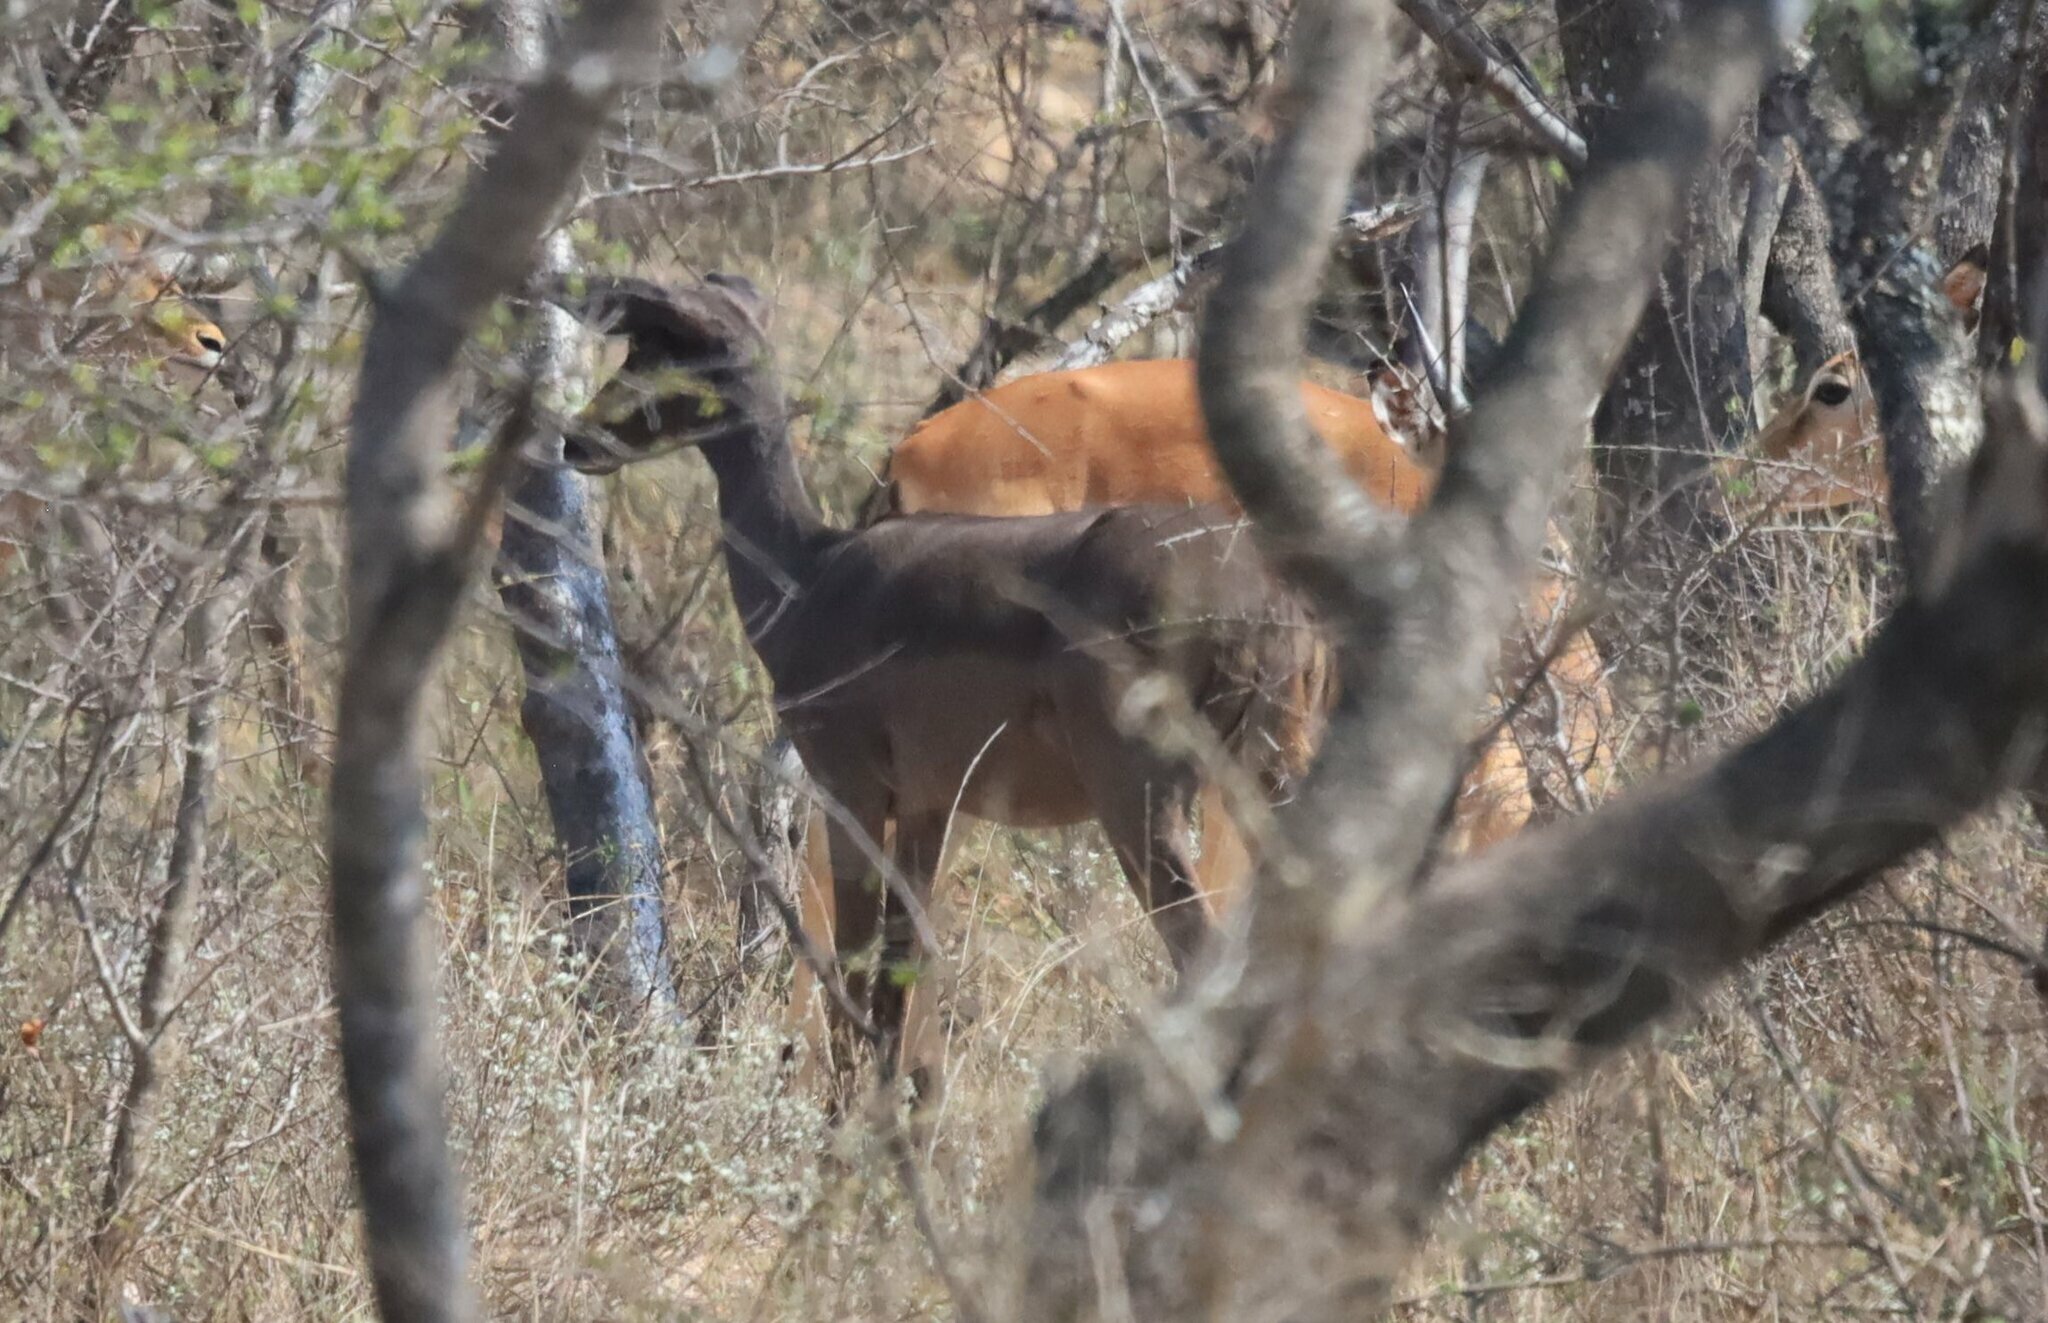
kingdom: Animalia
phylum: Chordata
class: Mammalia
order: Artiodactyla
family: Bovidae
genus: Aepyceros
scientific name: Aepyceros melampus
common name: Impala
